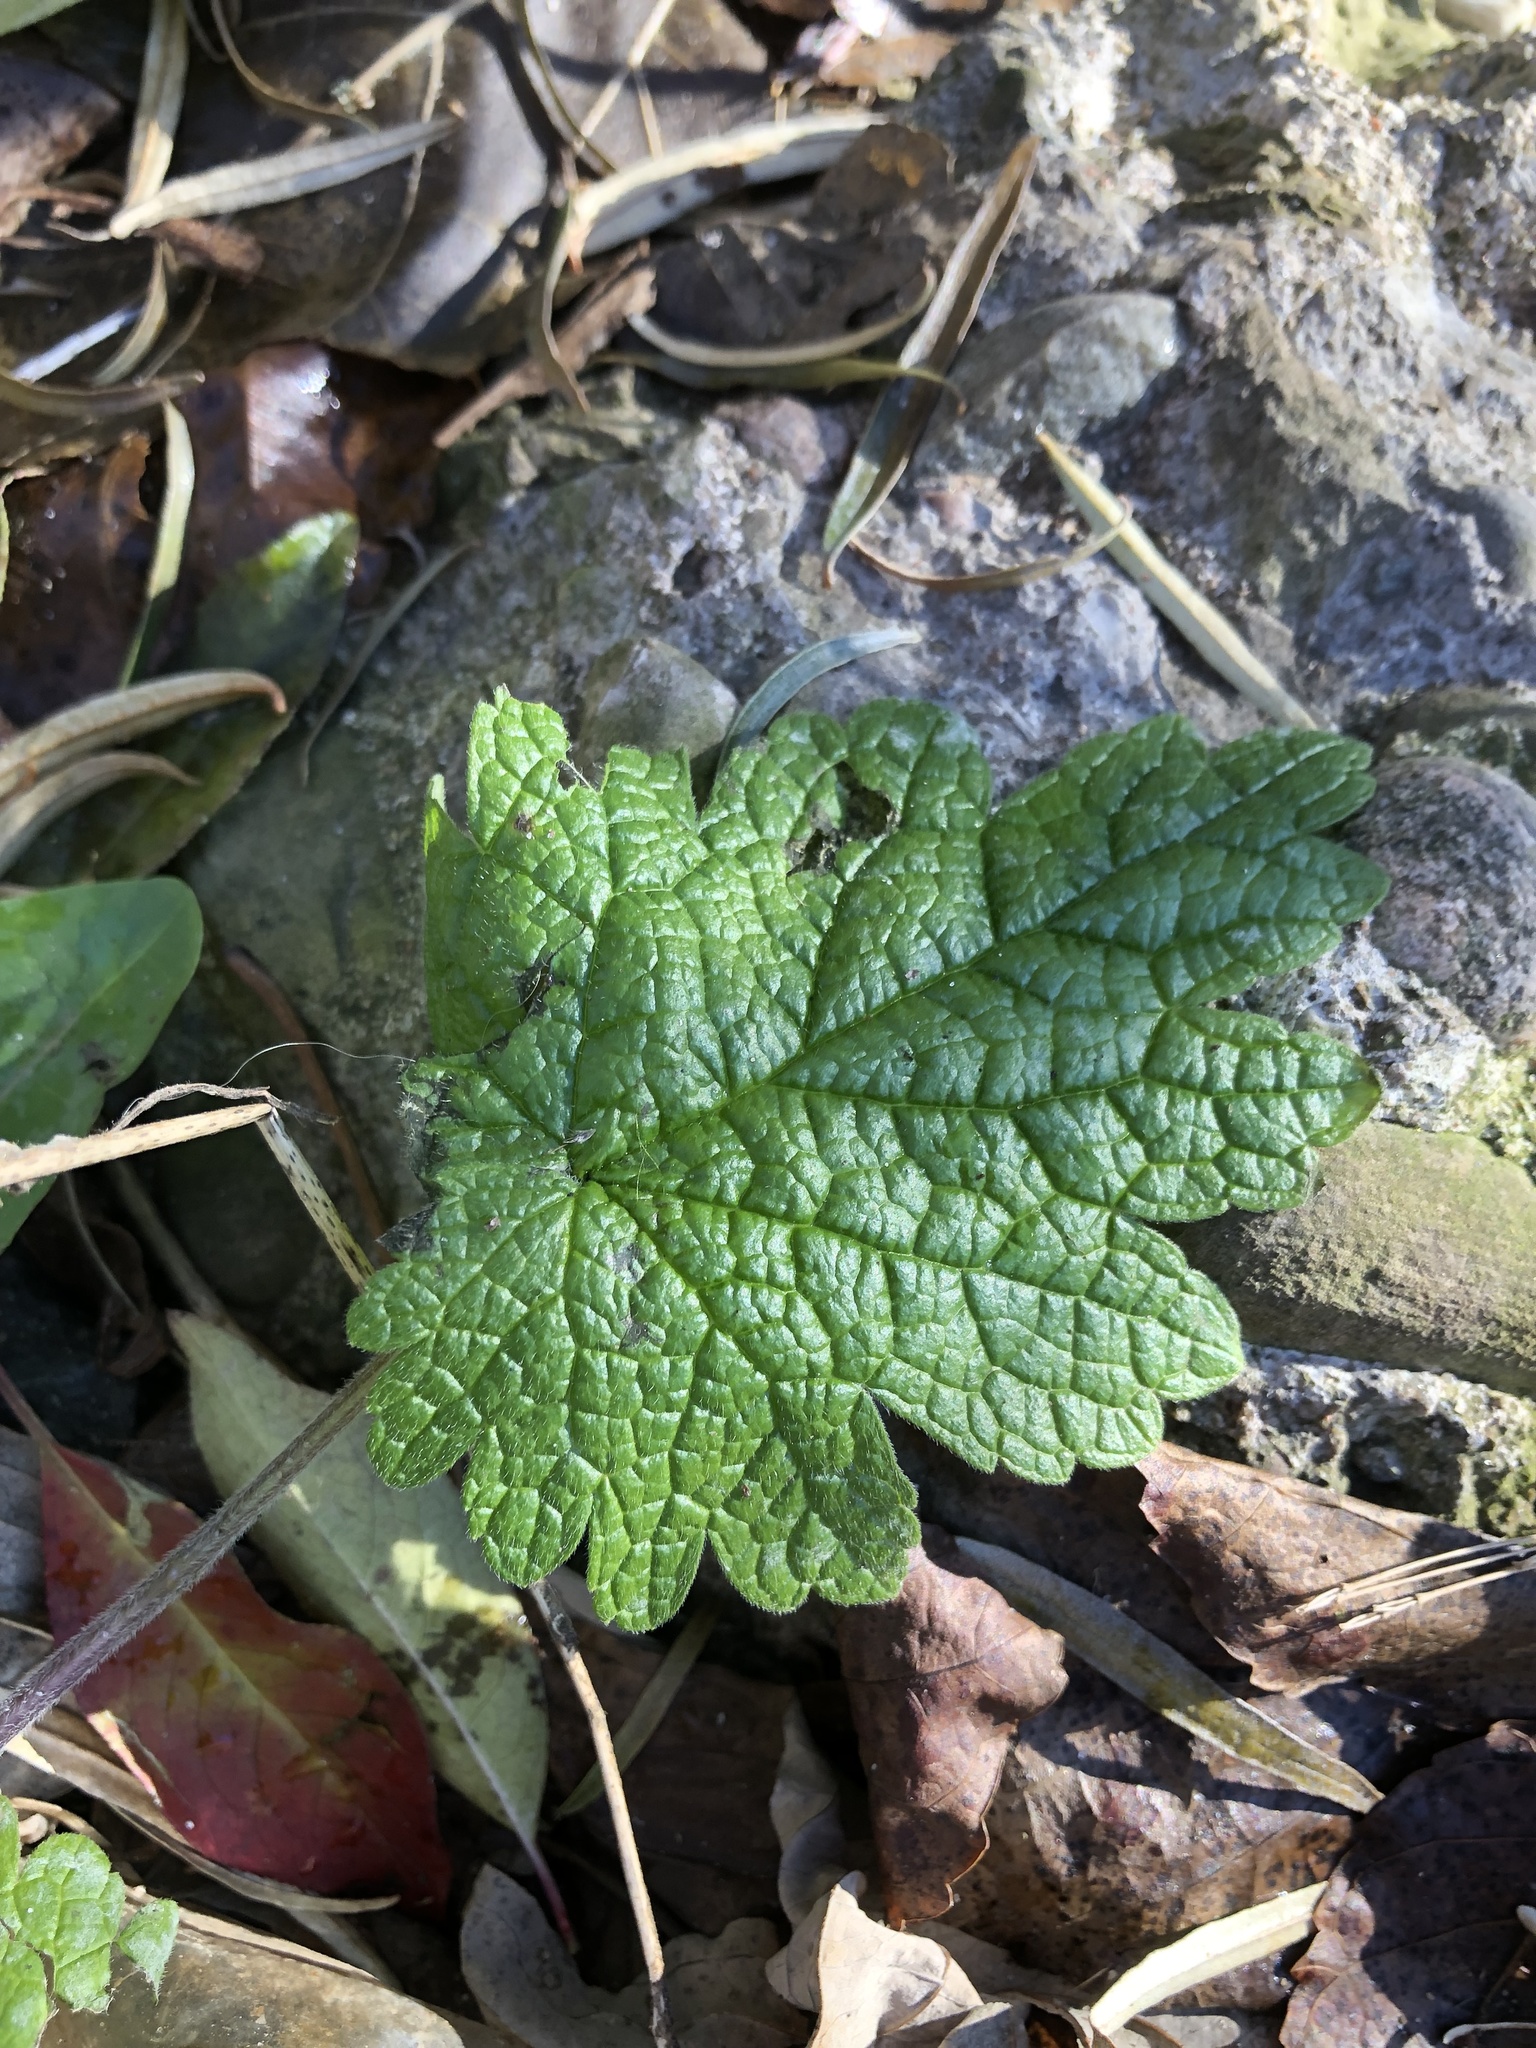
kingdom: Plantae
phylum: Tracheophyta
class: Magnoliopsida
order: Lamiales
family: Lamiaceae
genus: Leonurus
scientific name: Leonurus cardiaca
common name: Motherwort
